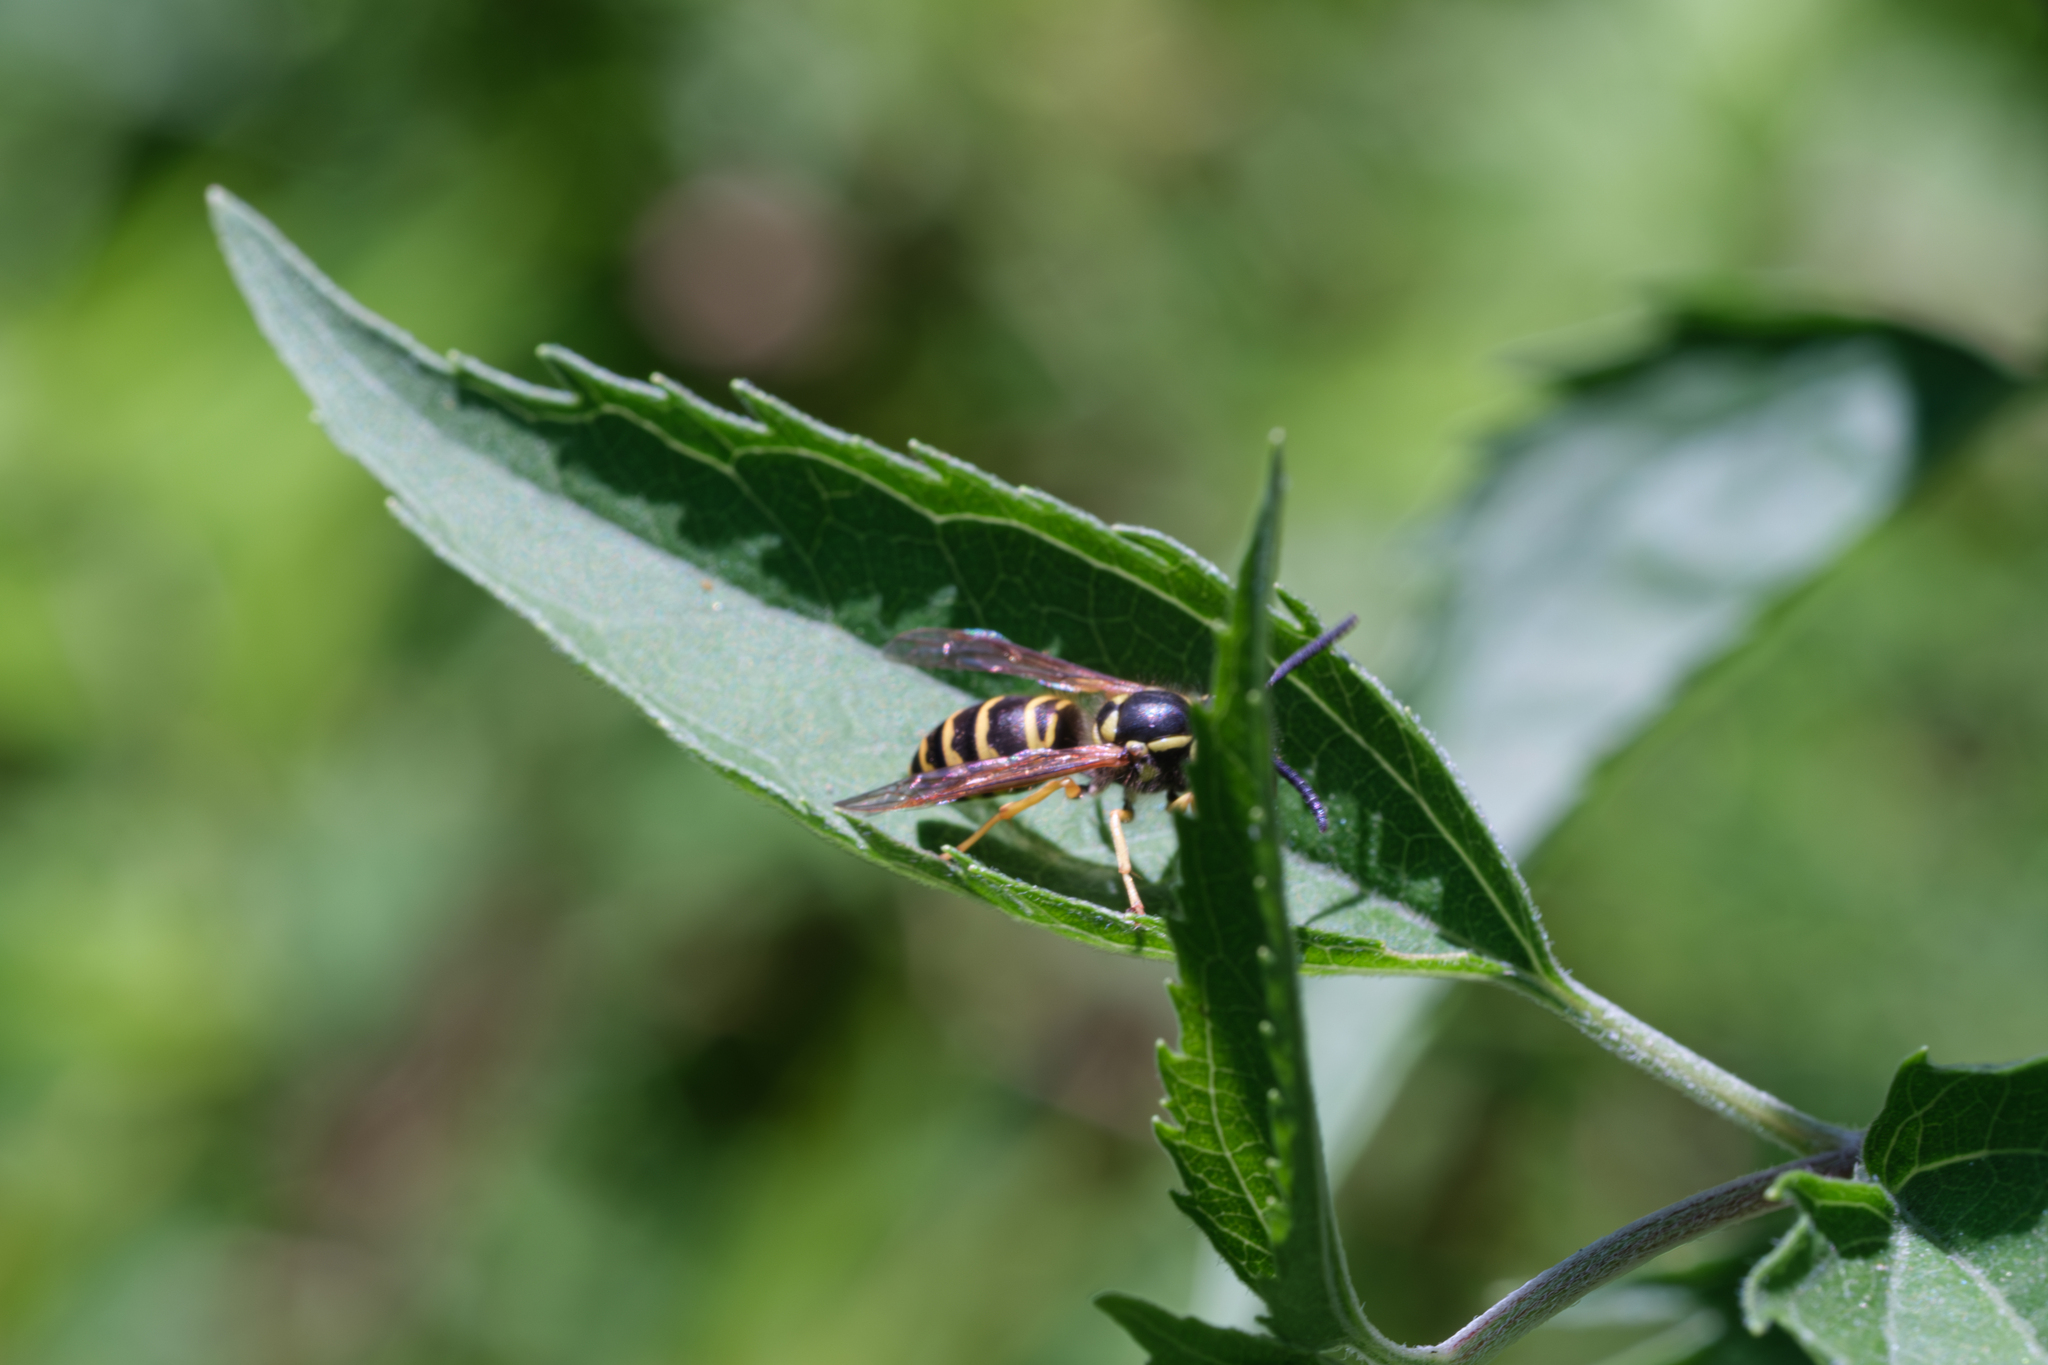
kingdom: Animalia
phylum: Arthropoda
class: Insecta
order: Hymenoptera
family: Vespidae
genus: Vespula
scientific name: Vespula maculifrons
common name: Eastern yellowjacket
